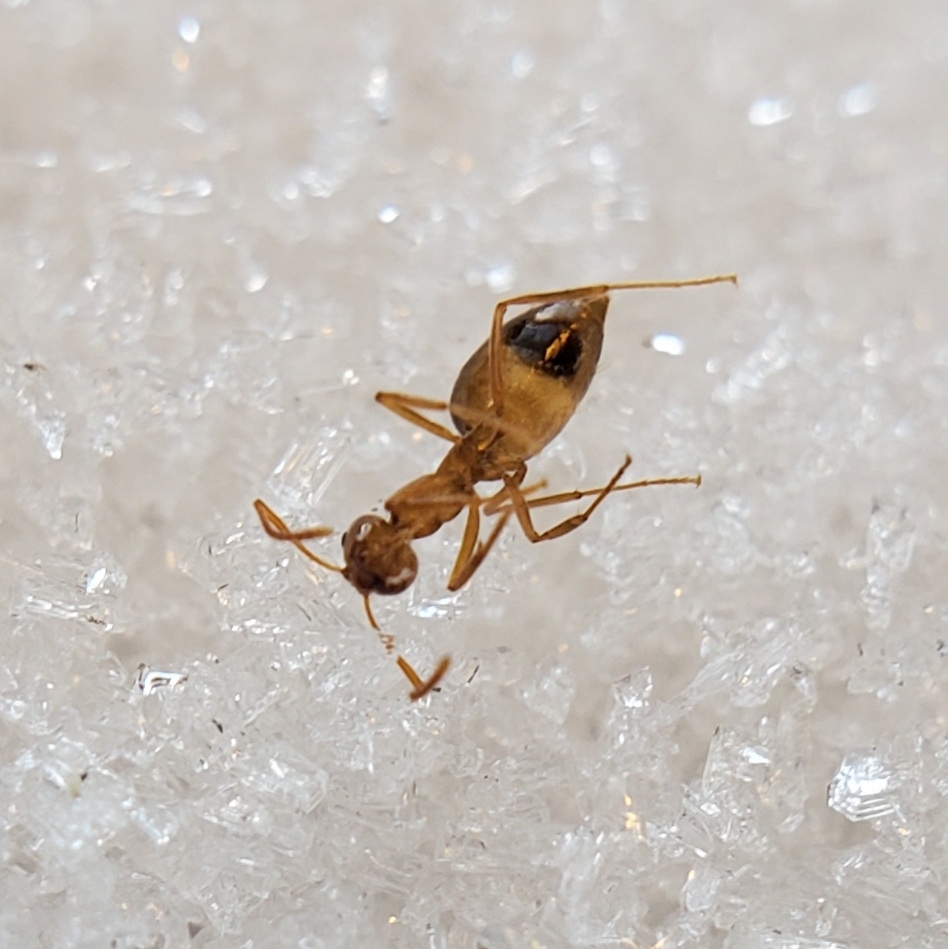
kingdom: Animalia
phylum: Arthropoda
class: Insecta
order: Hymenoptera
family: Formicidae
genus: Prenolepis
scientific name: Prenolepis imparis
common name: Small honey ant
